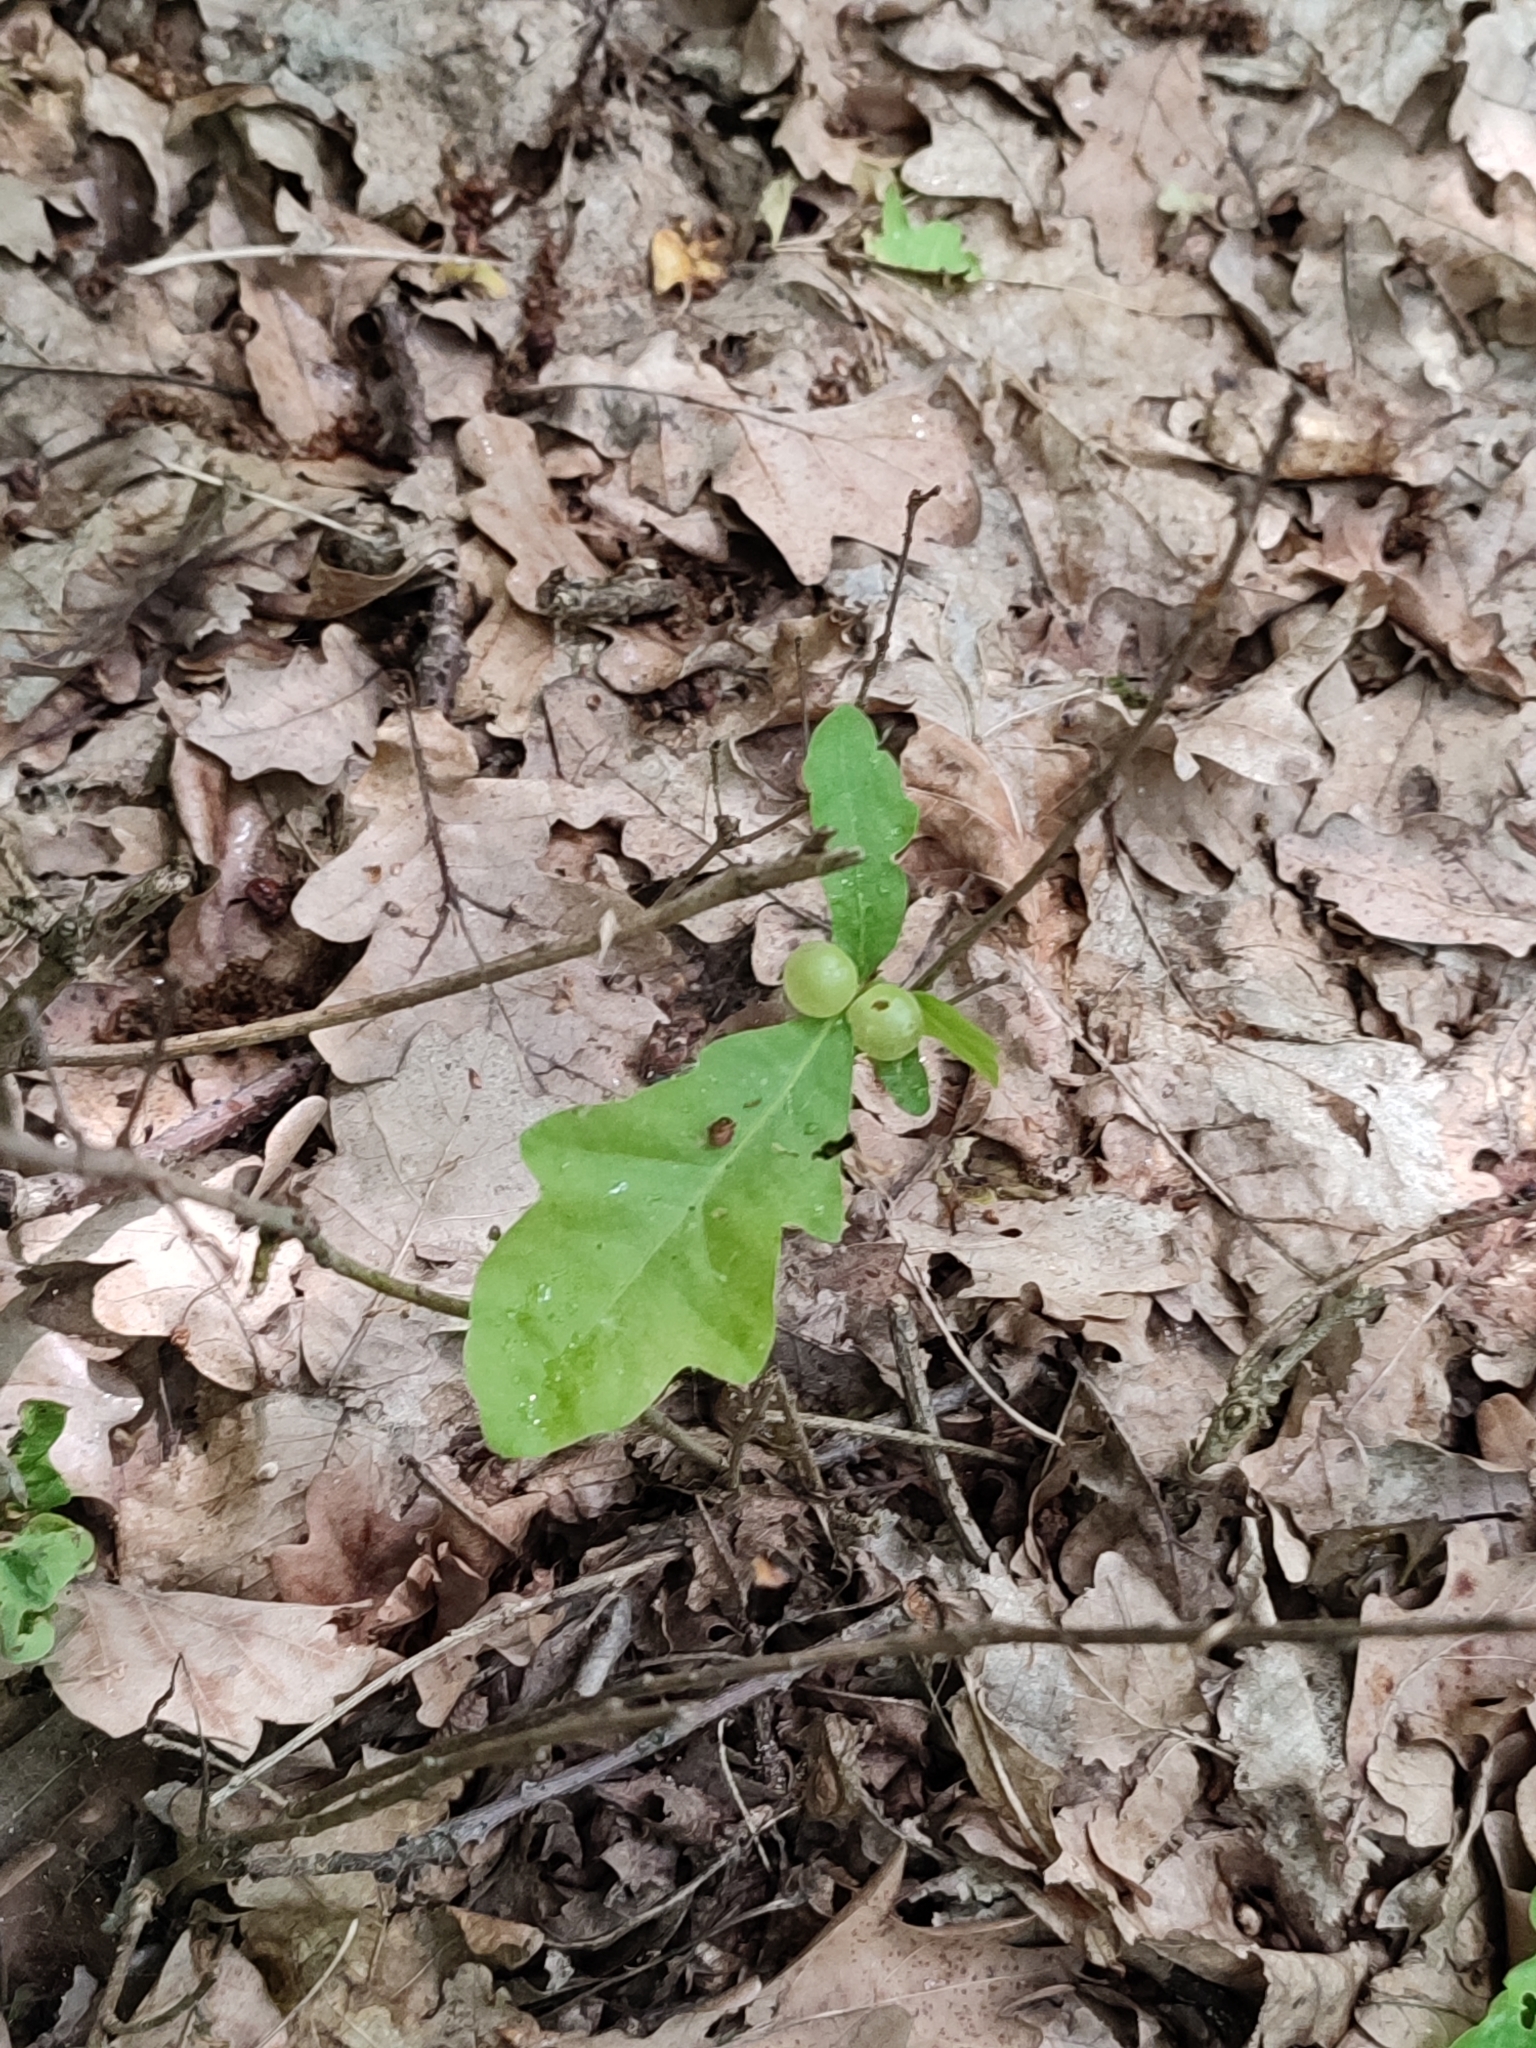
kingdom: Plantae
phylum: Tracheophyta
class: Magnoliopsida
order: Fagales
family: Fagaceae
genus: Quercus
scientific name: Quercus robur
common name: Pedunculate oak
